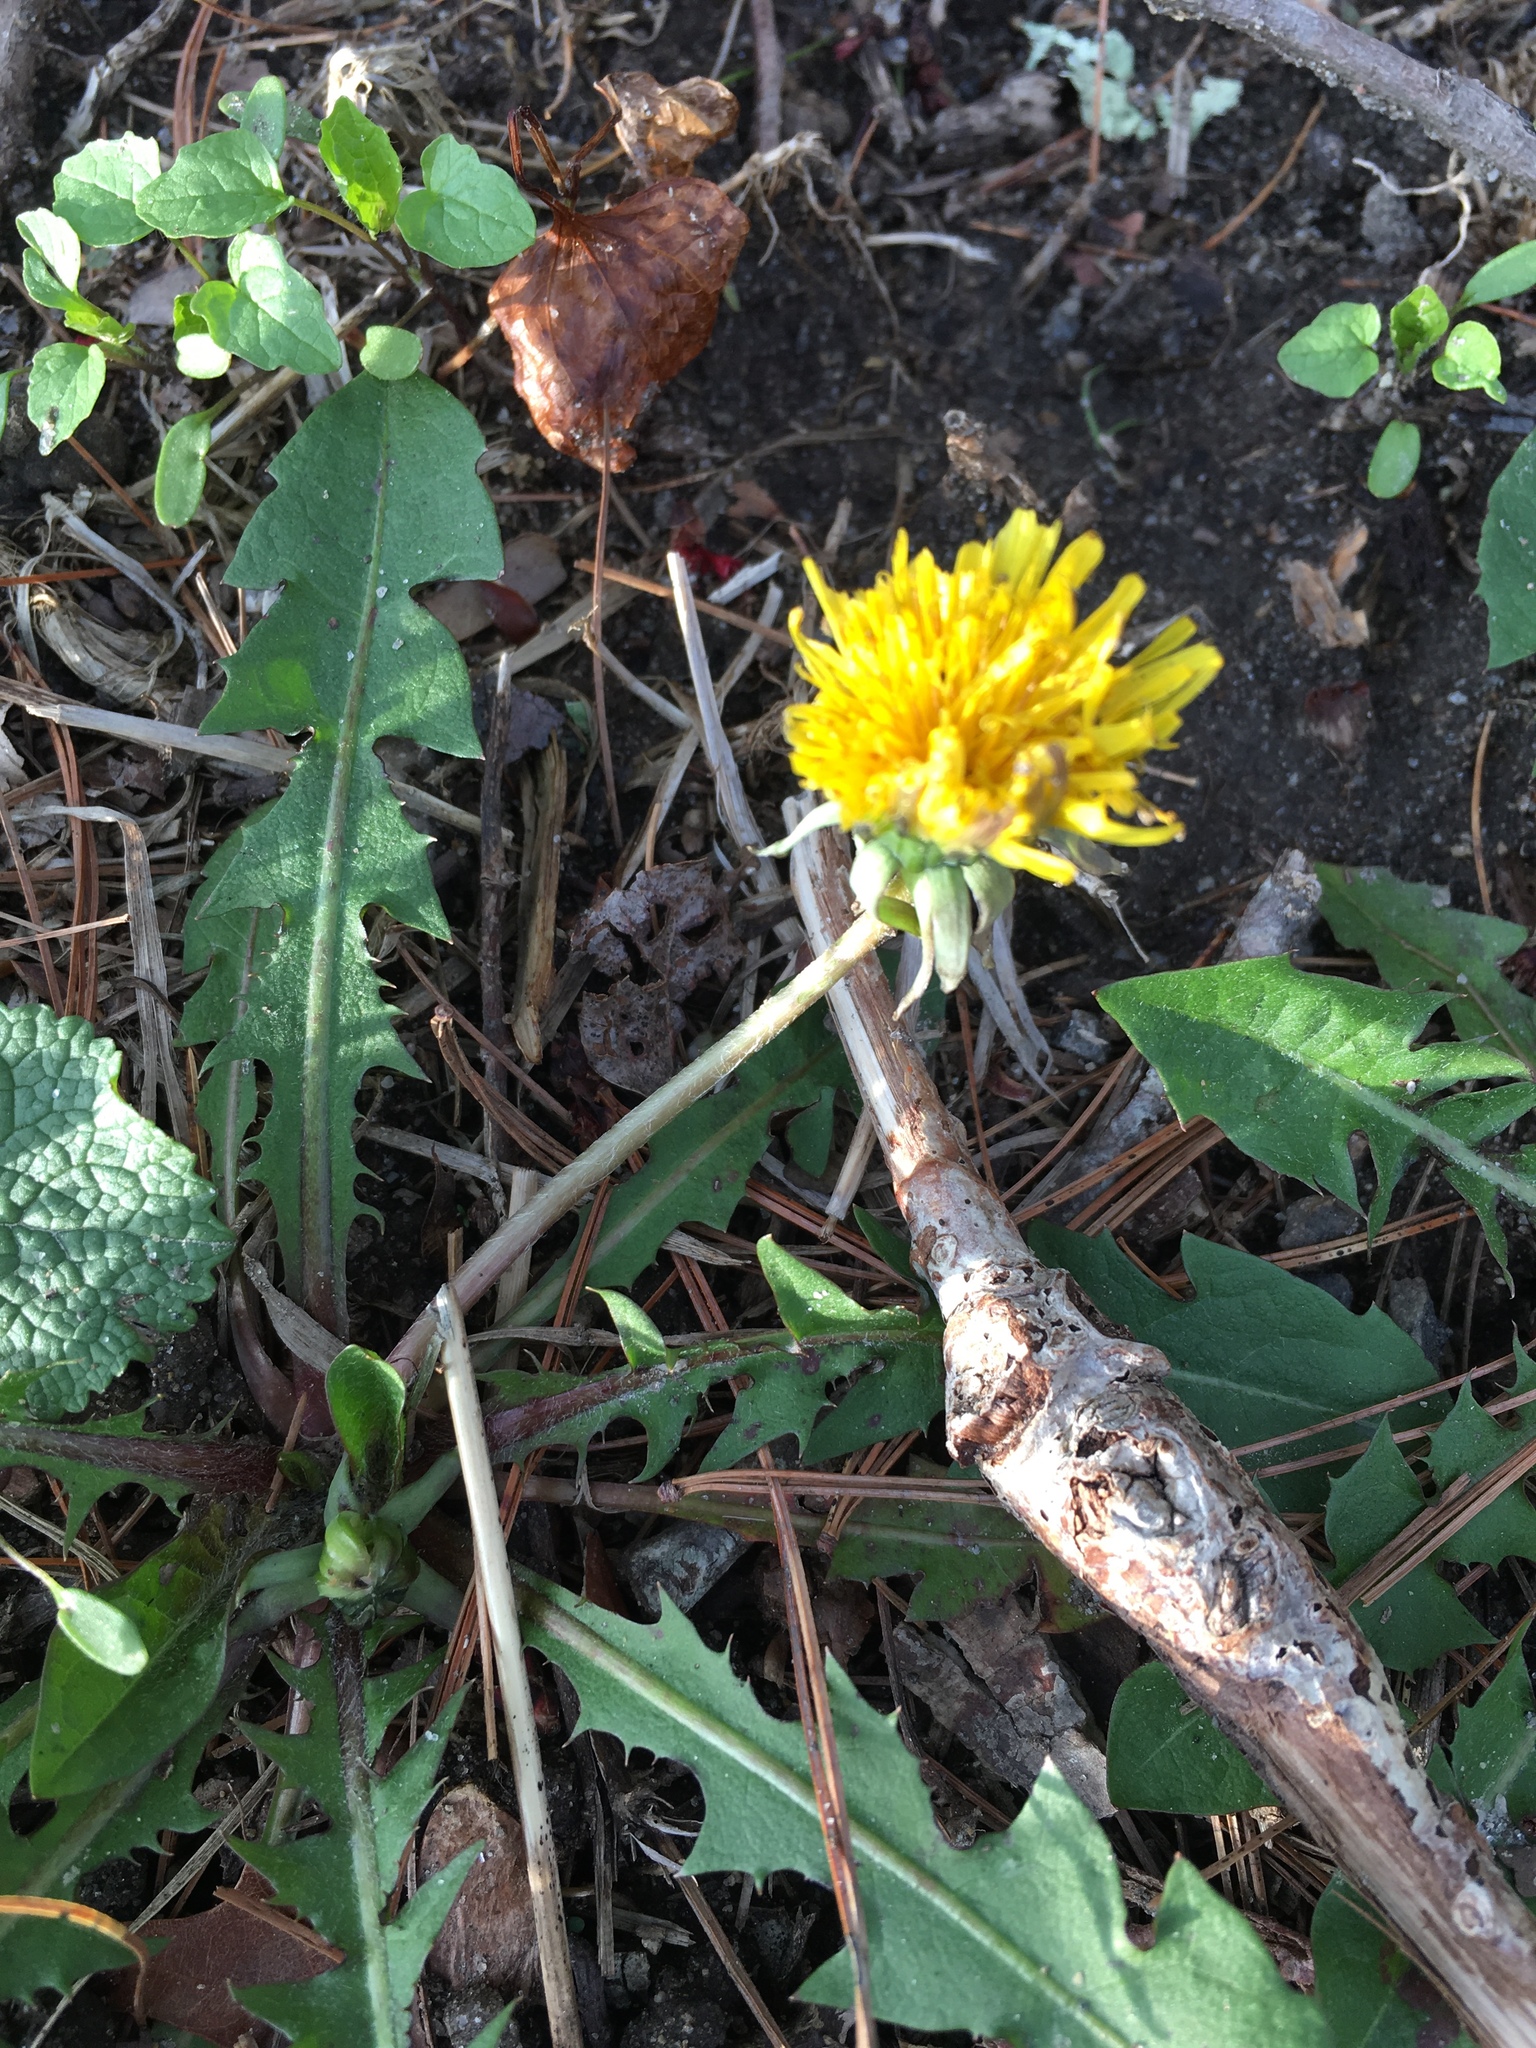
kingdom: Plantae
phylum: Tracheophyta
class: Magnoliopsida
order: Asterales
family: Asteraceae
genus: Taraxacum
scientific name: Taraxacum officinale
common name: Common dandelion
